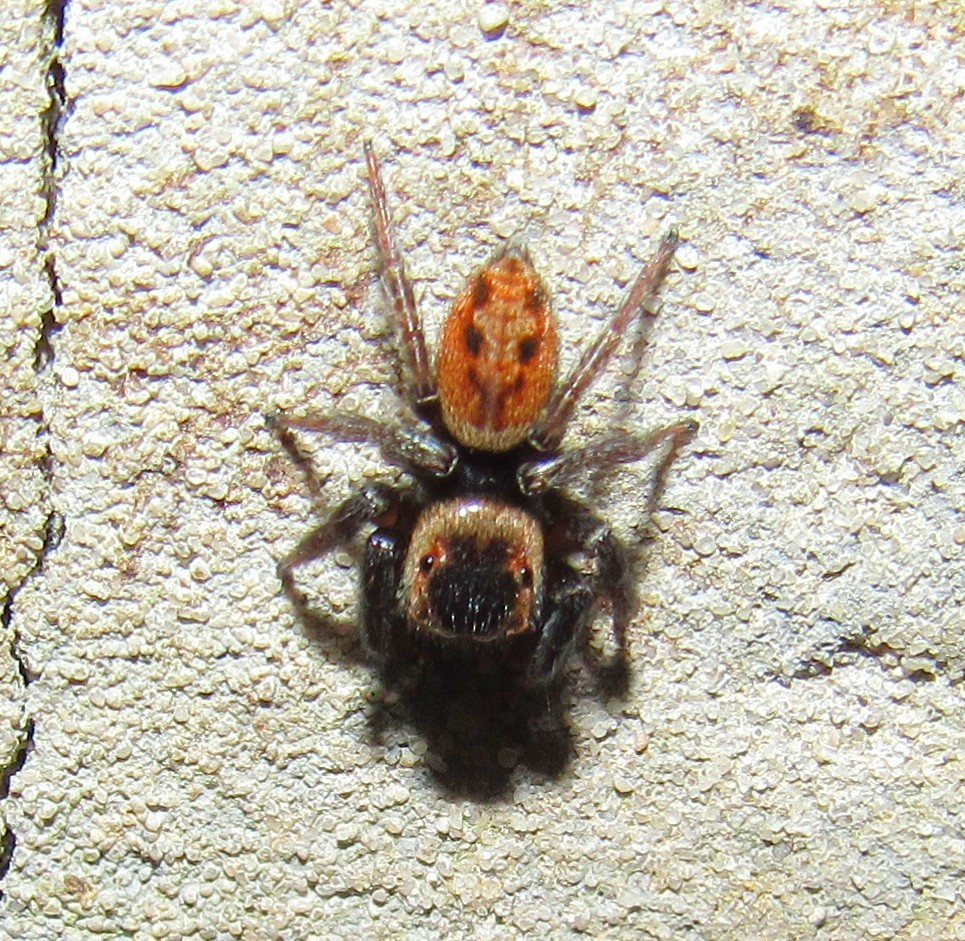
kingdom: Animalia
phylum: Arthropoda
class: Arachnida
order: Araneae
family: Salticidae
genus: Hasarius
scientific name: Hasarius adansoni
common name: Jumping spider
